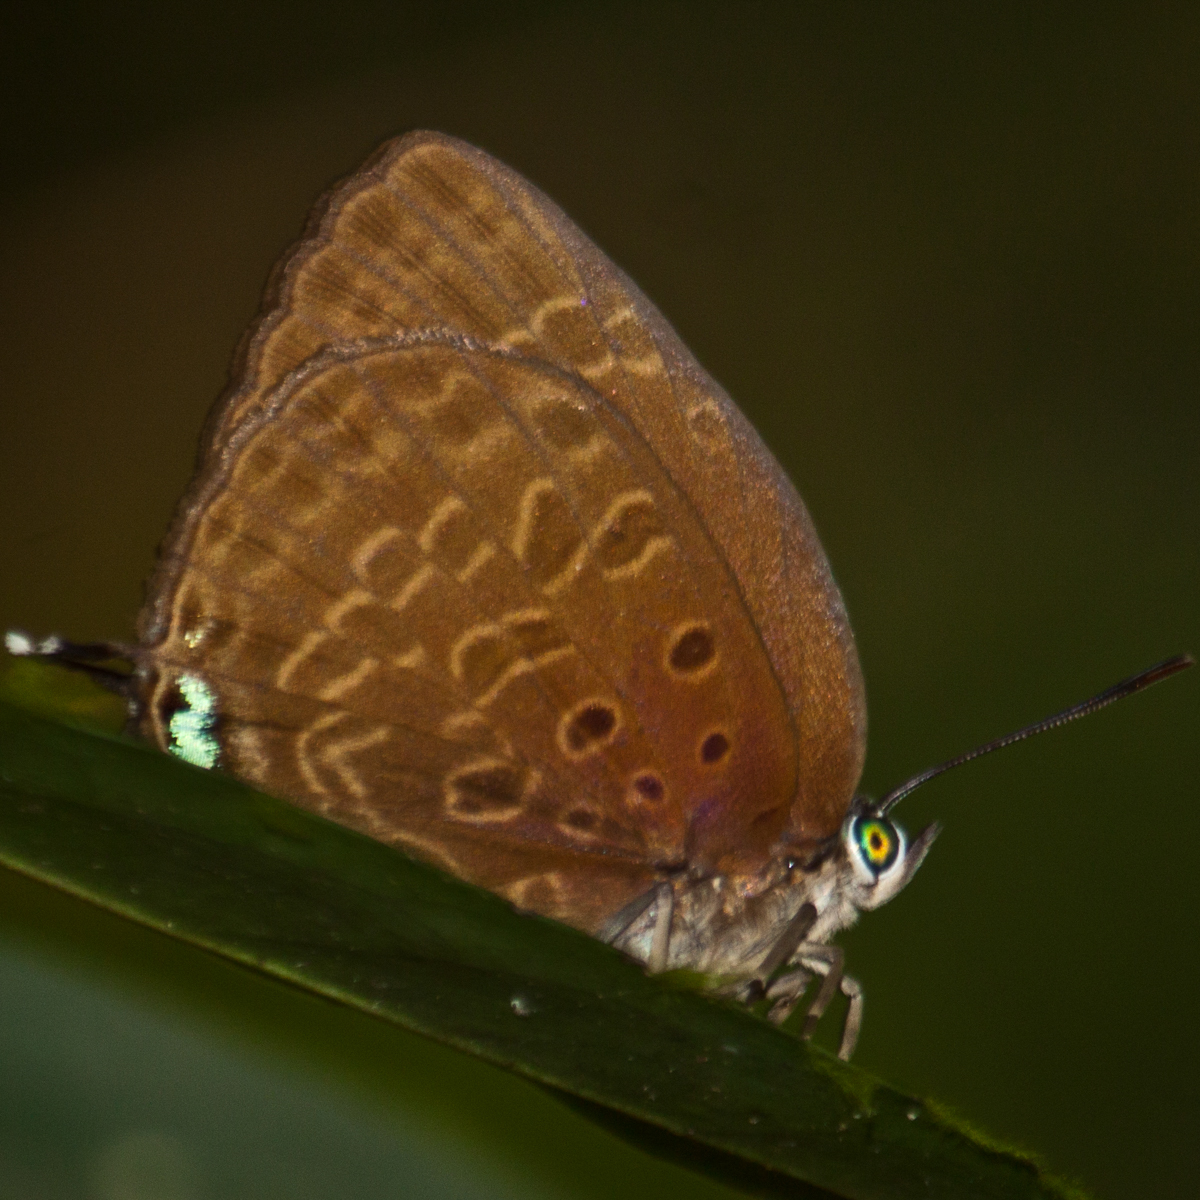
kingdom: Animalia
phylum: Arthropoda
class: Insecta
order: Lepidoptera
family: Lycaenidae
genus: Arhopala
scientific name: Arhopala atosia
